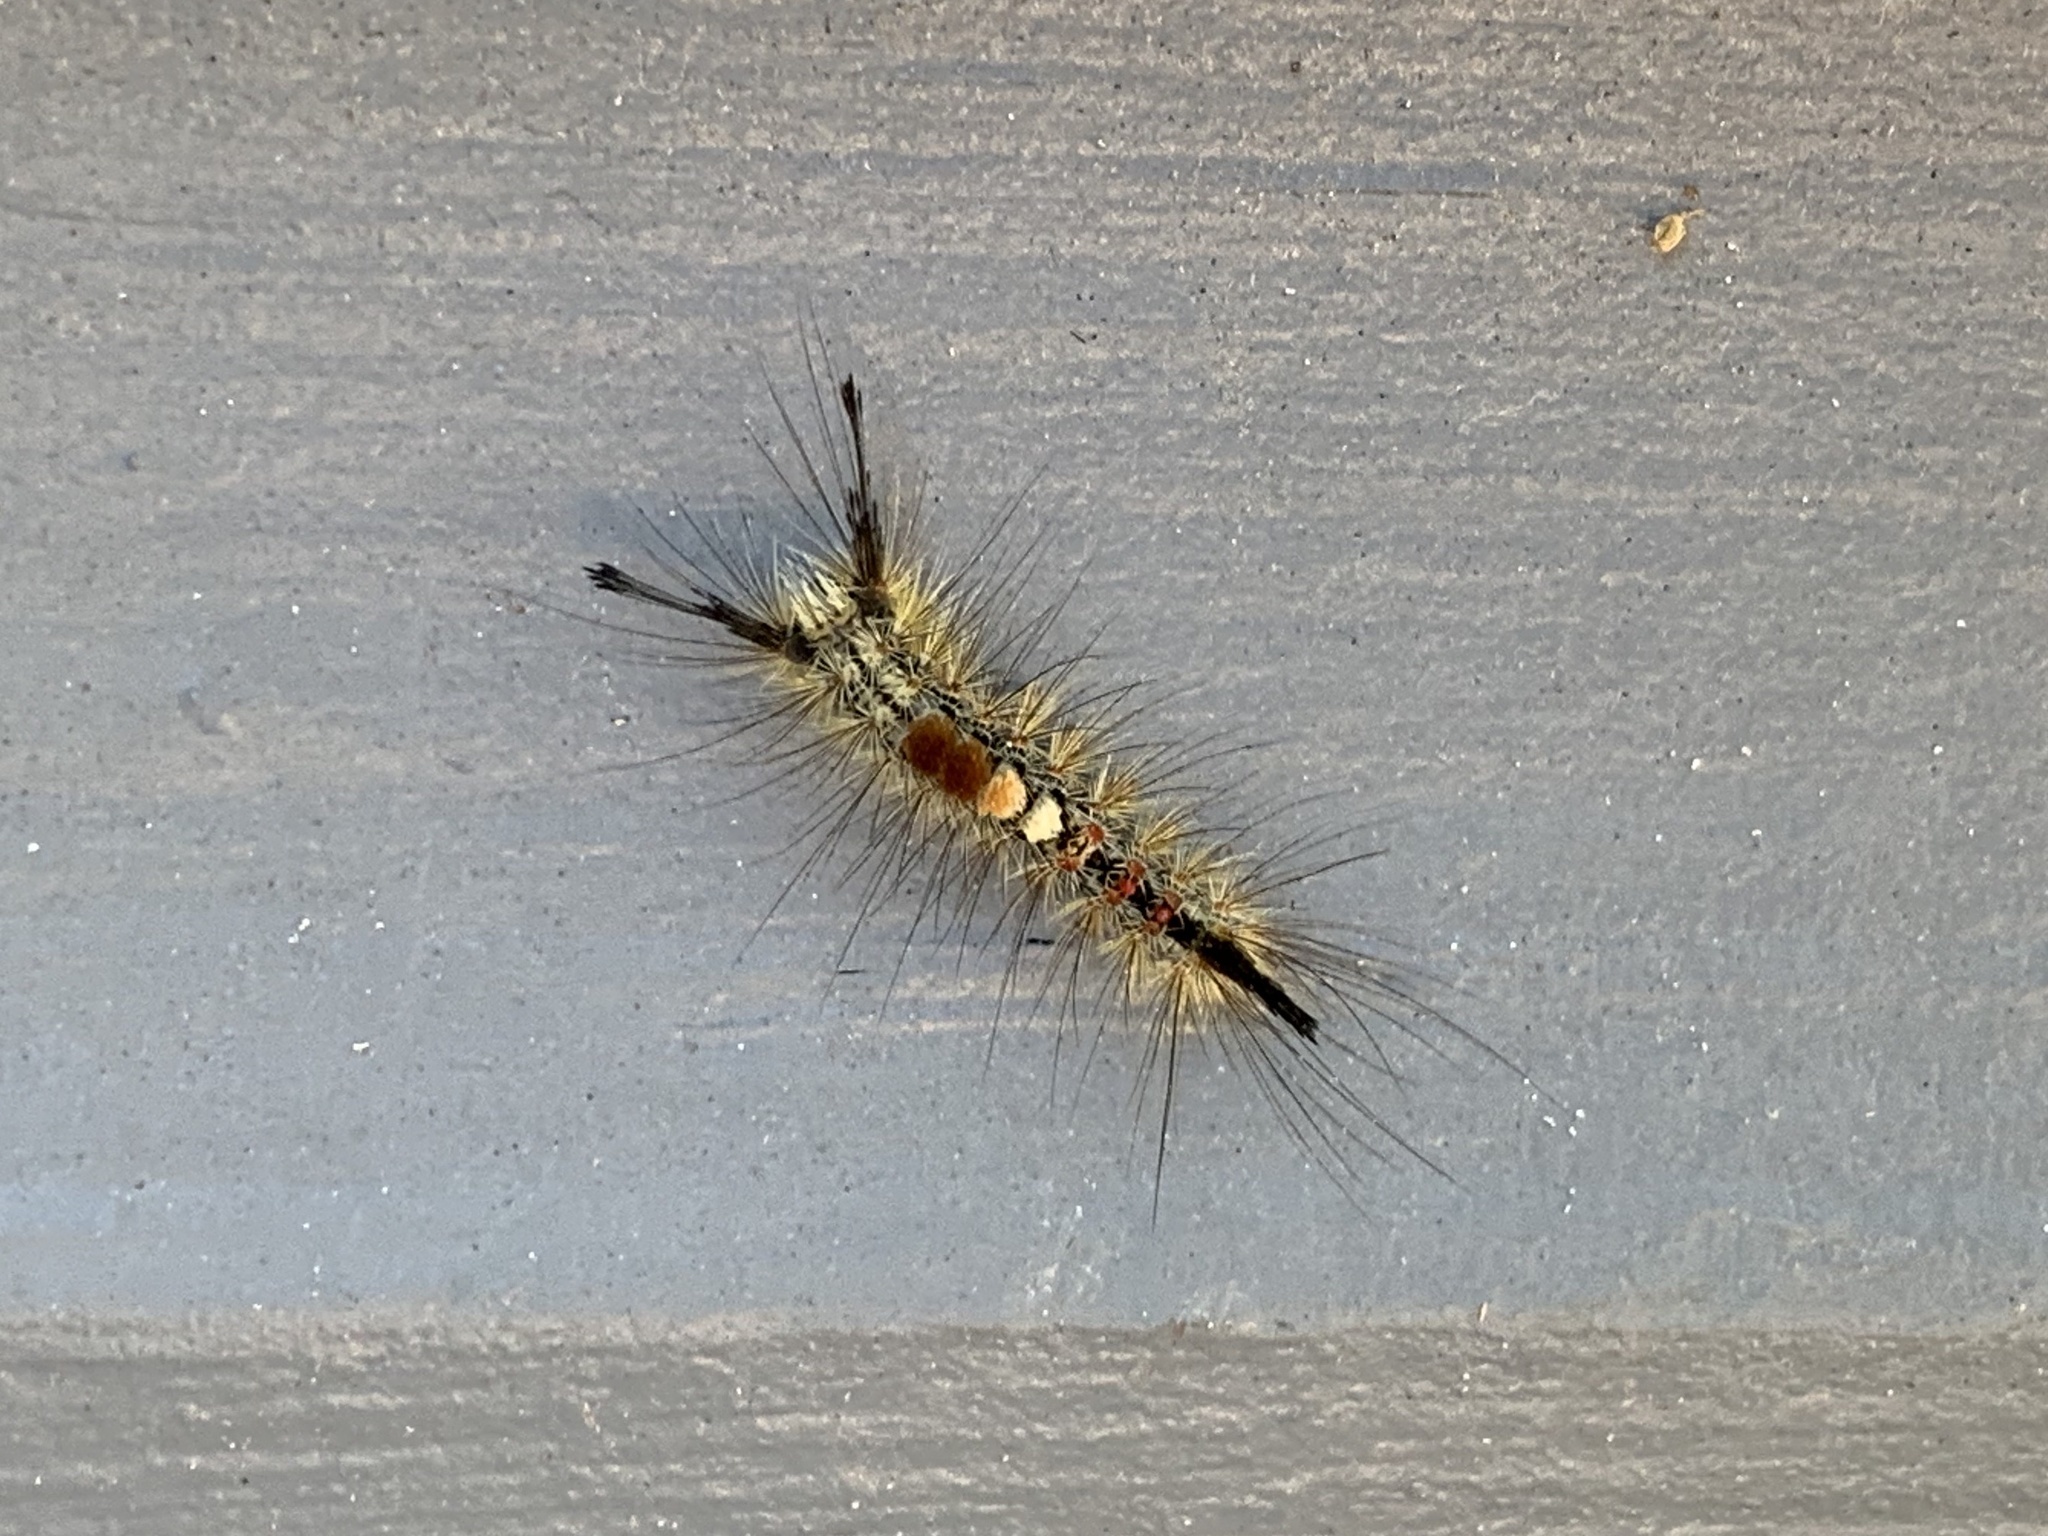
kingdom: Animalia
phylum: Arthropoda
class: Insecta
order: Lepidoptera
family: Erebidae
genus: Orgyia
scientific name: Orgyia pseudotsugata
